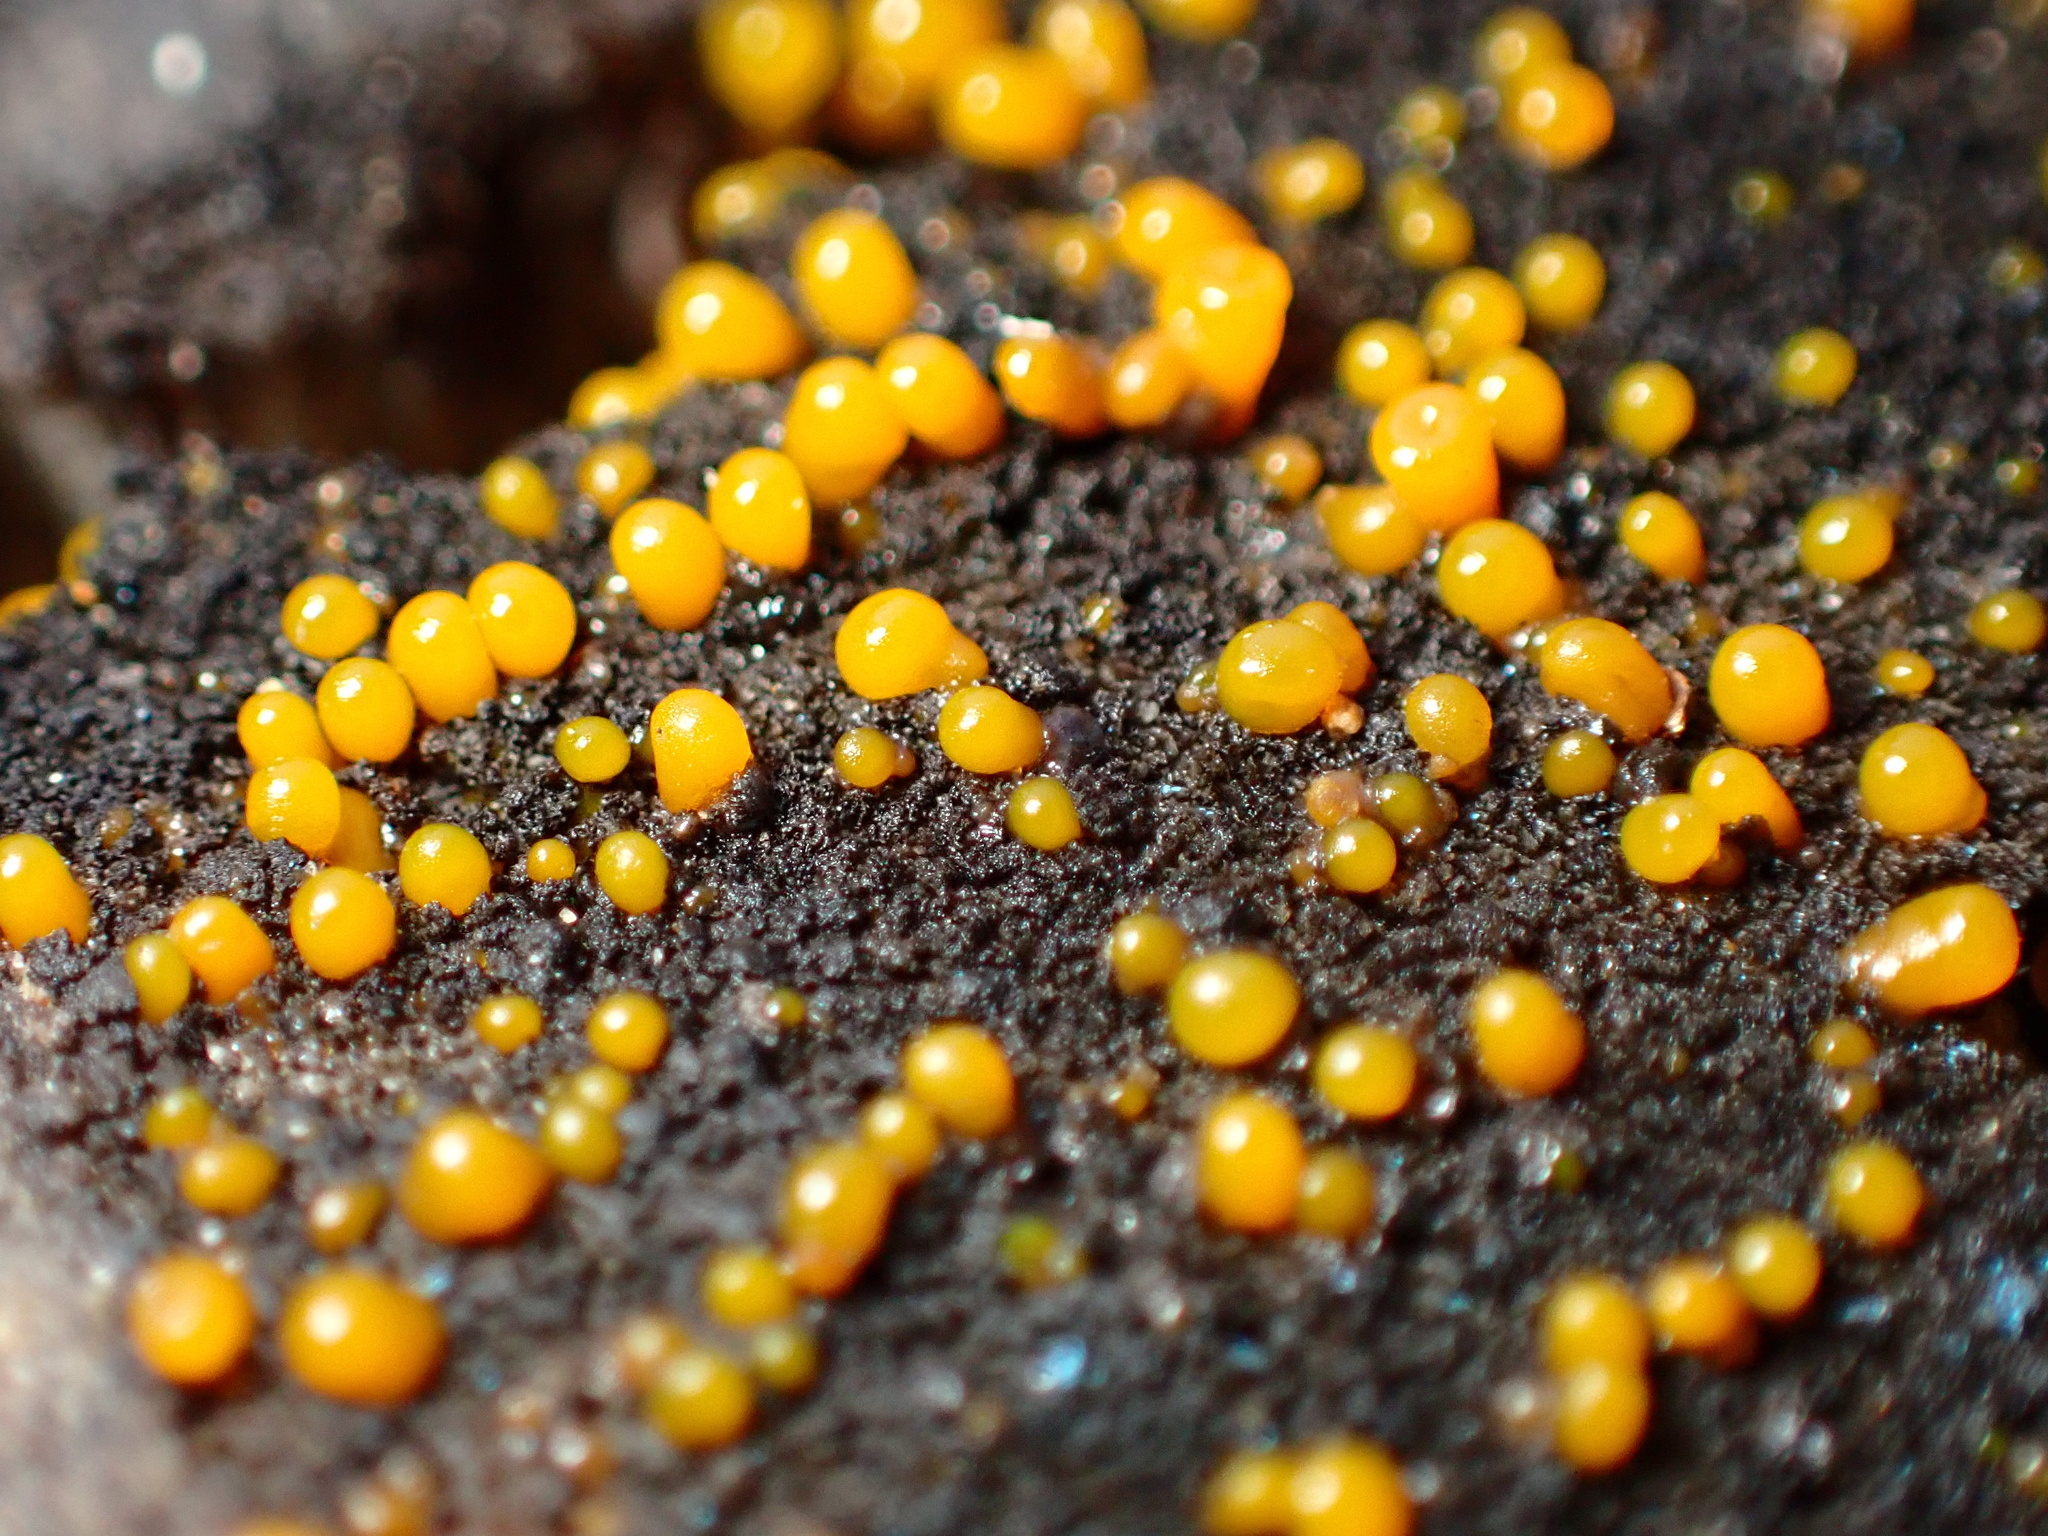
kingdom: Fungi
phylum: Basidiomycota
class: Dacrymycetes
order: Dacrymycetales
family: Dacrymycetaceae
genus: Dacrymyces
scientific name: Dacrymyces stillatus
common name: Common jelly spot
